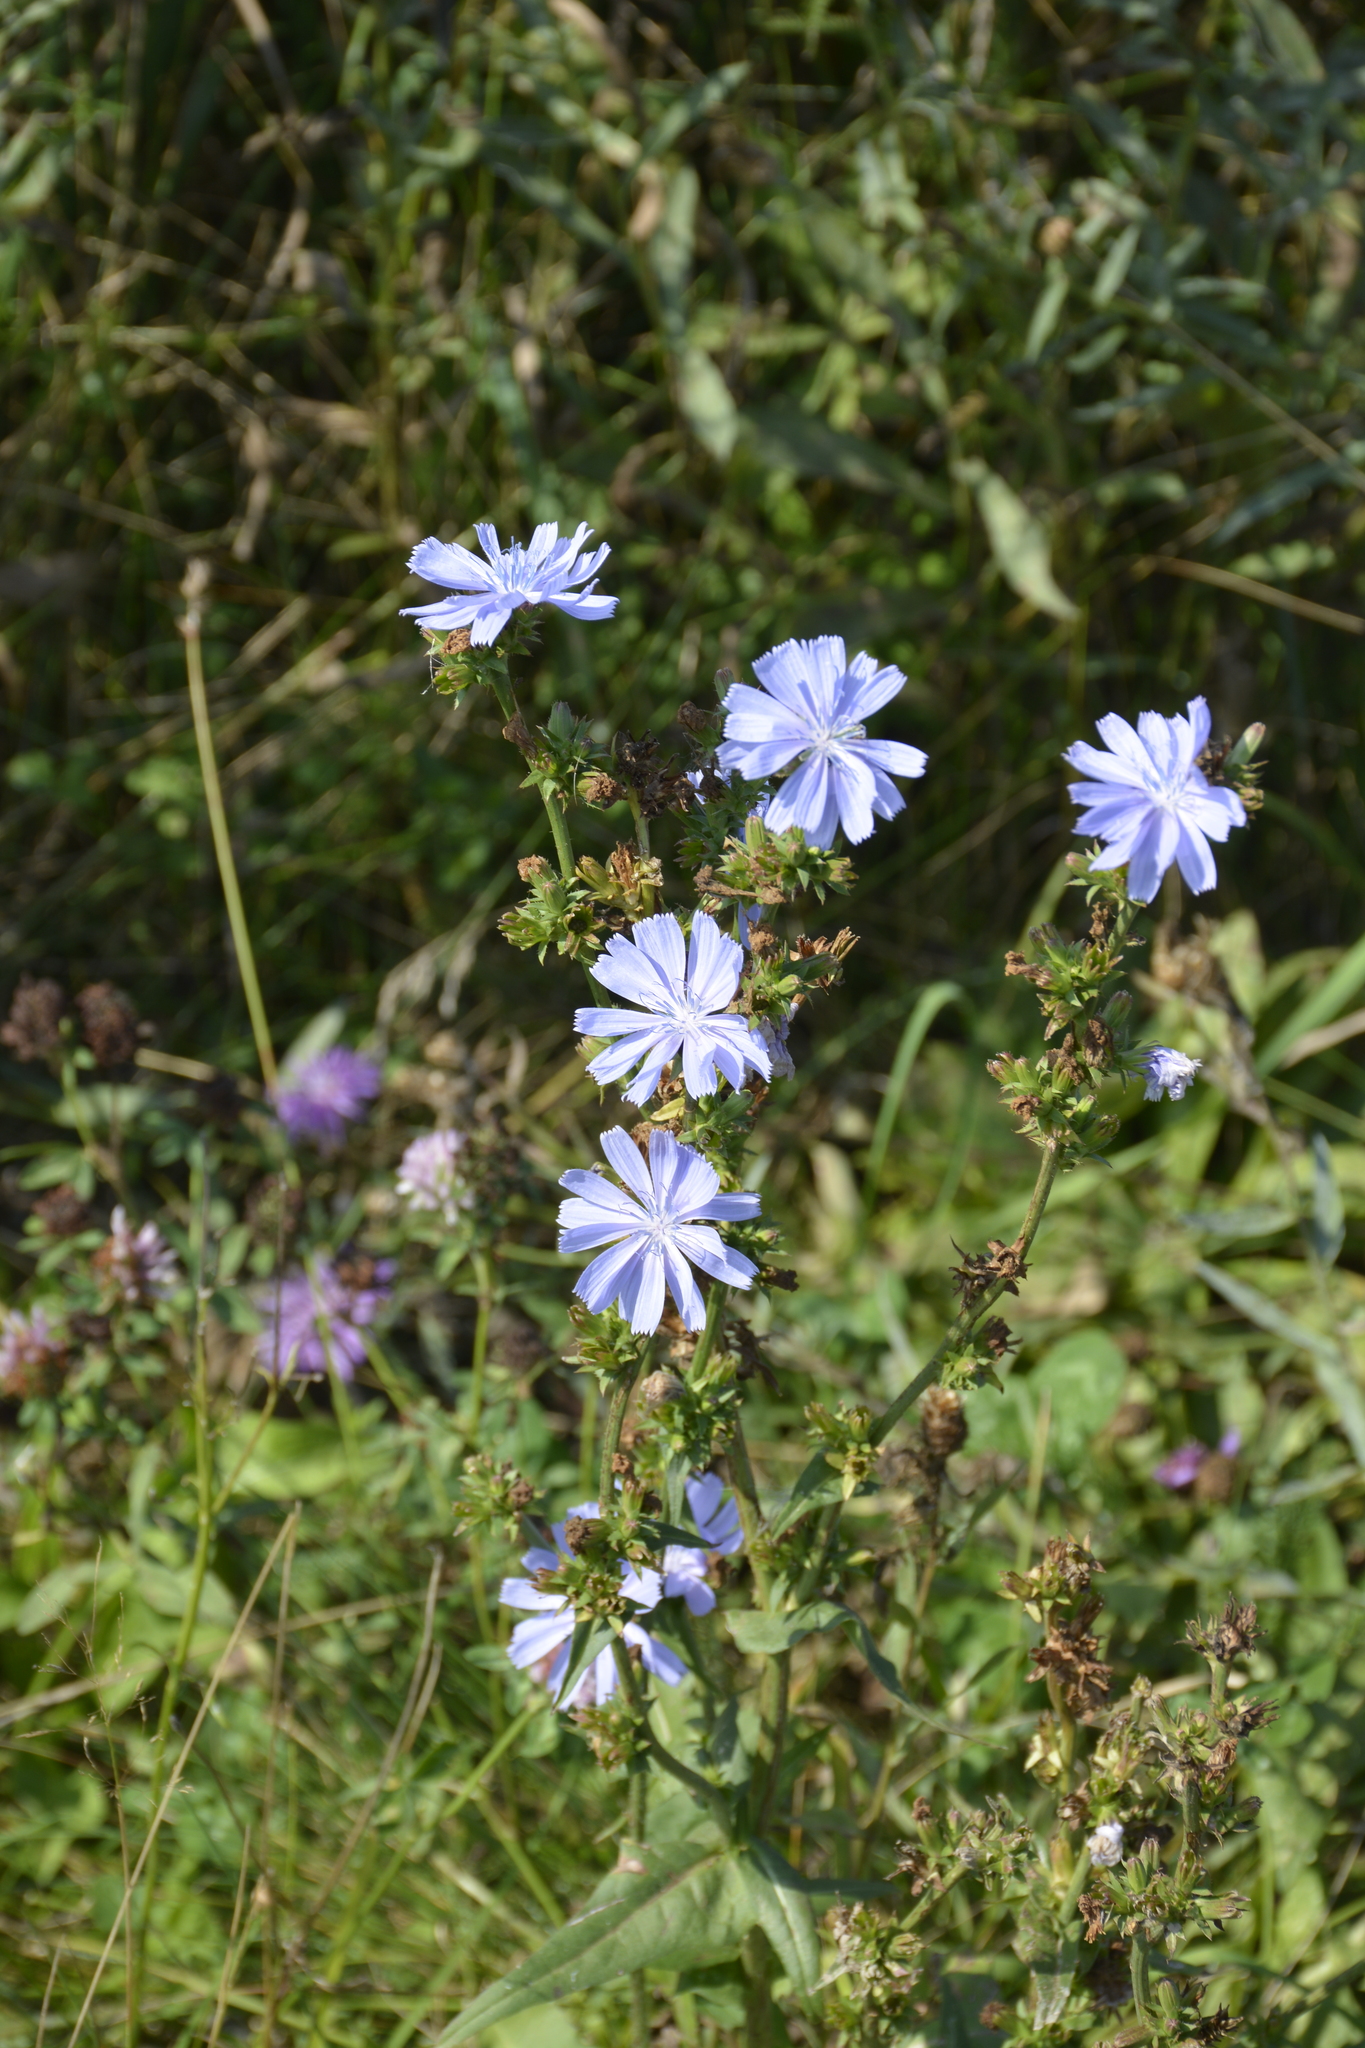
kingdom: Plantae
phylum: Tracheophyta
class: Magnoliopsida
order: Asterales
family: Asteraceae
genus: Cichorium
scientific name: Cichorium intybus
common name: Chicory
